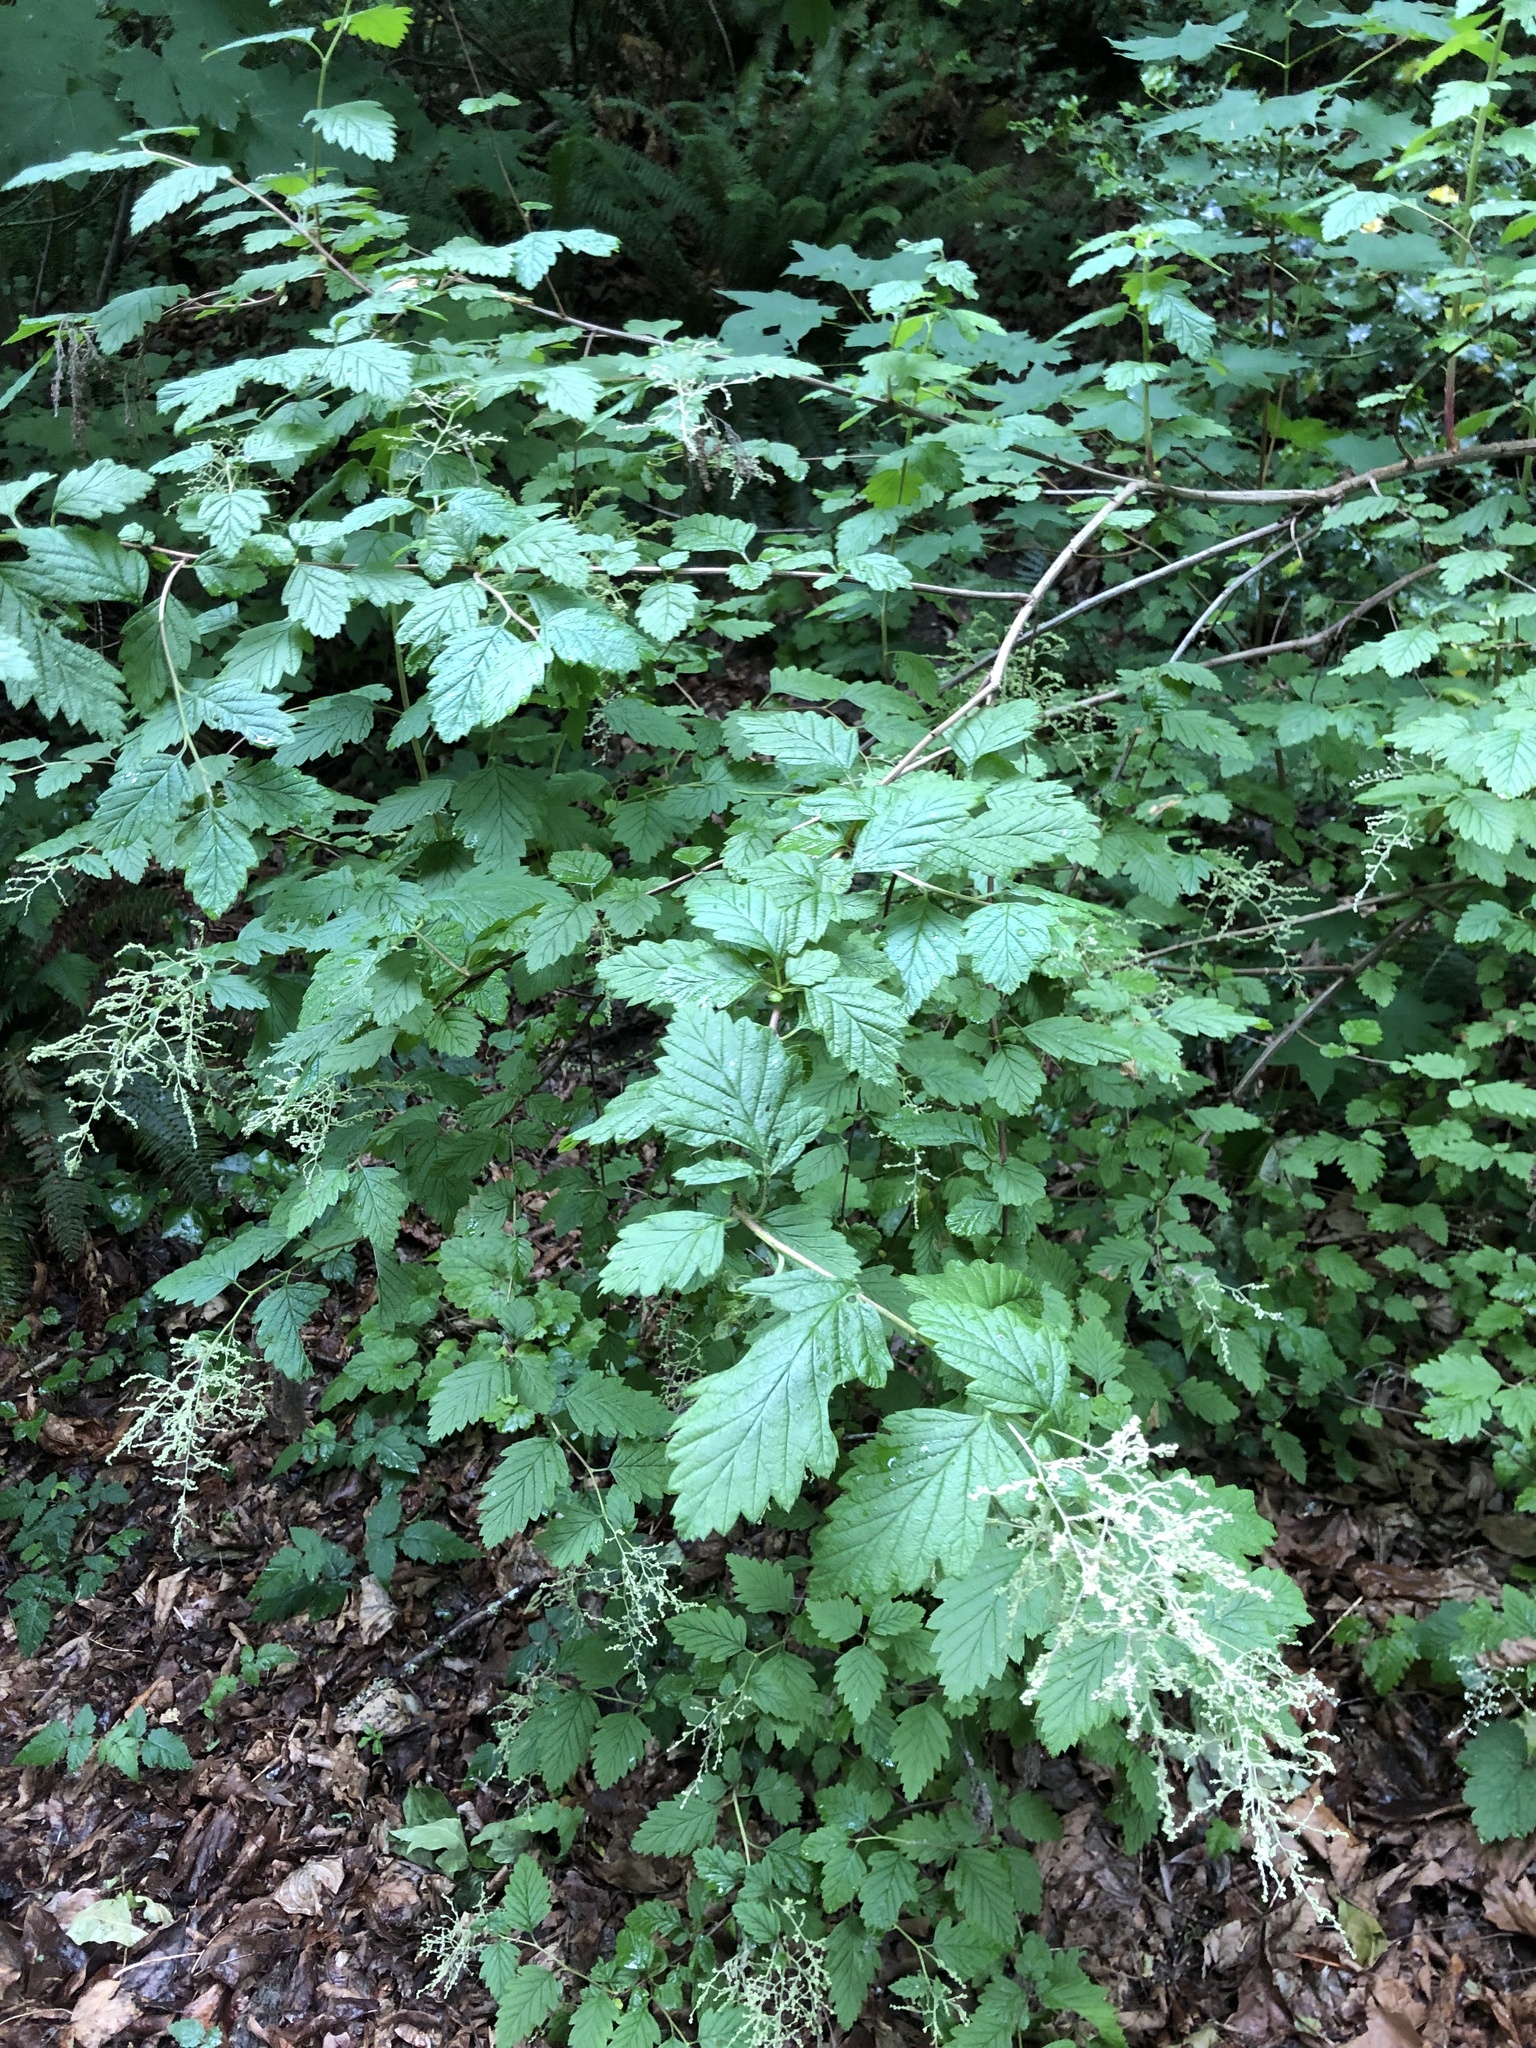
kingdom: Plantae
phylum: Tracheophyta
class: Magnoliopsida
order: Rosales
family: Rosaceae
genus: Holodiscus
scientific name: Holodiscus discolor
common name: Oceanspray
